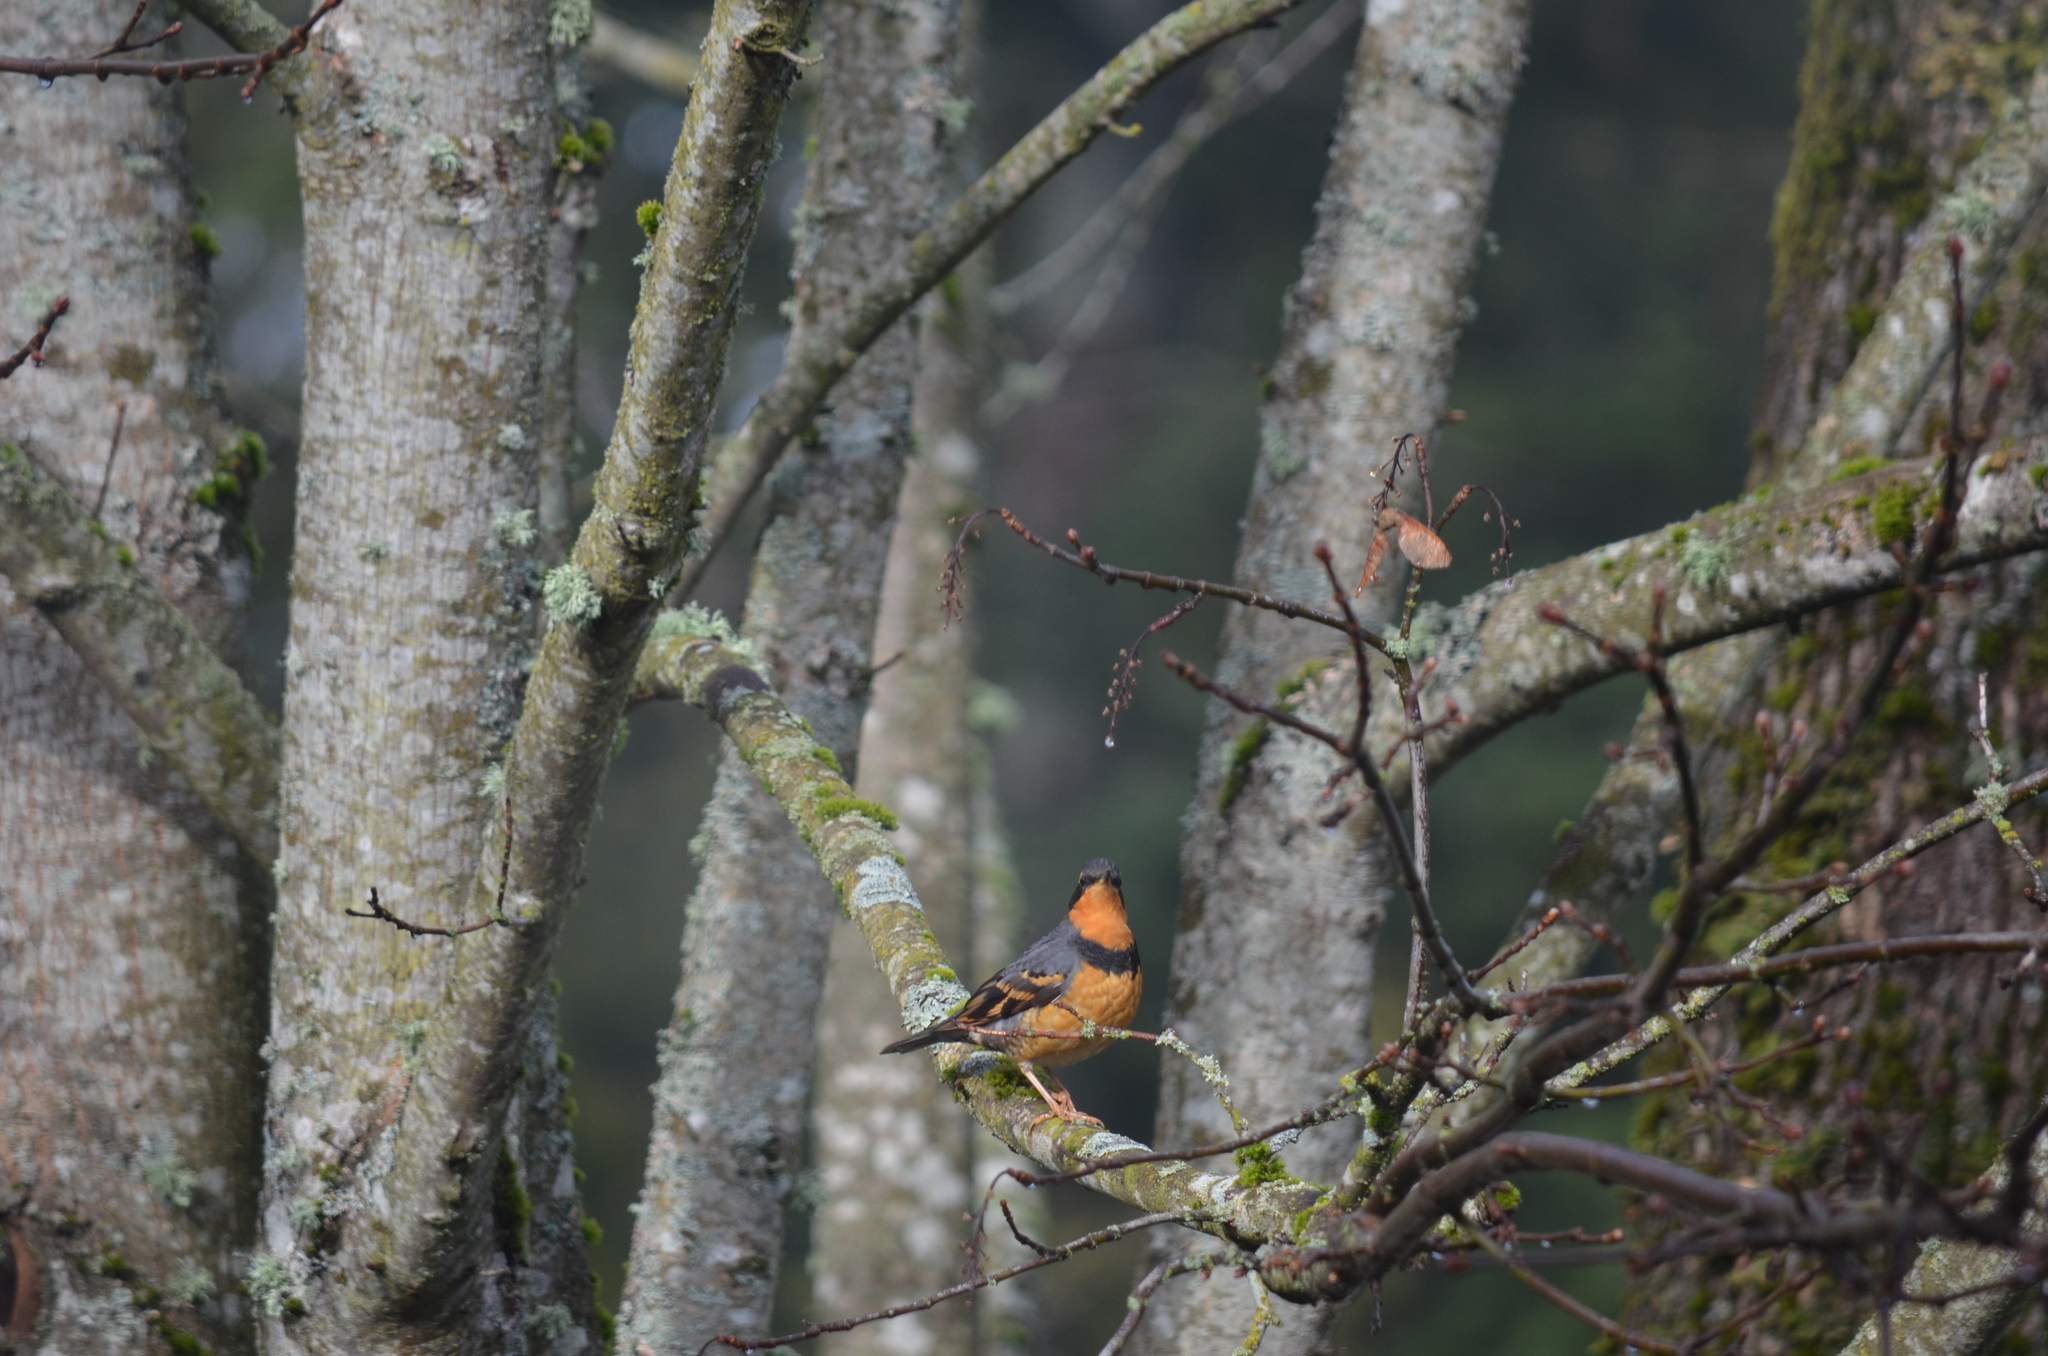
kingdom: Animalia
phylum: Chordata
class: Aves
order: Passeriformes
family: Turdidae
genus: Ixoreus
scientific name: Ixoreus naevius
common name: Varied thrush
